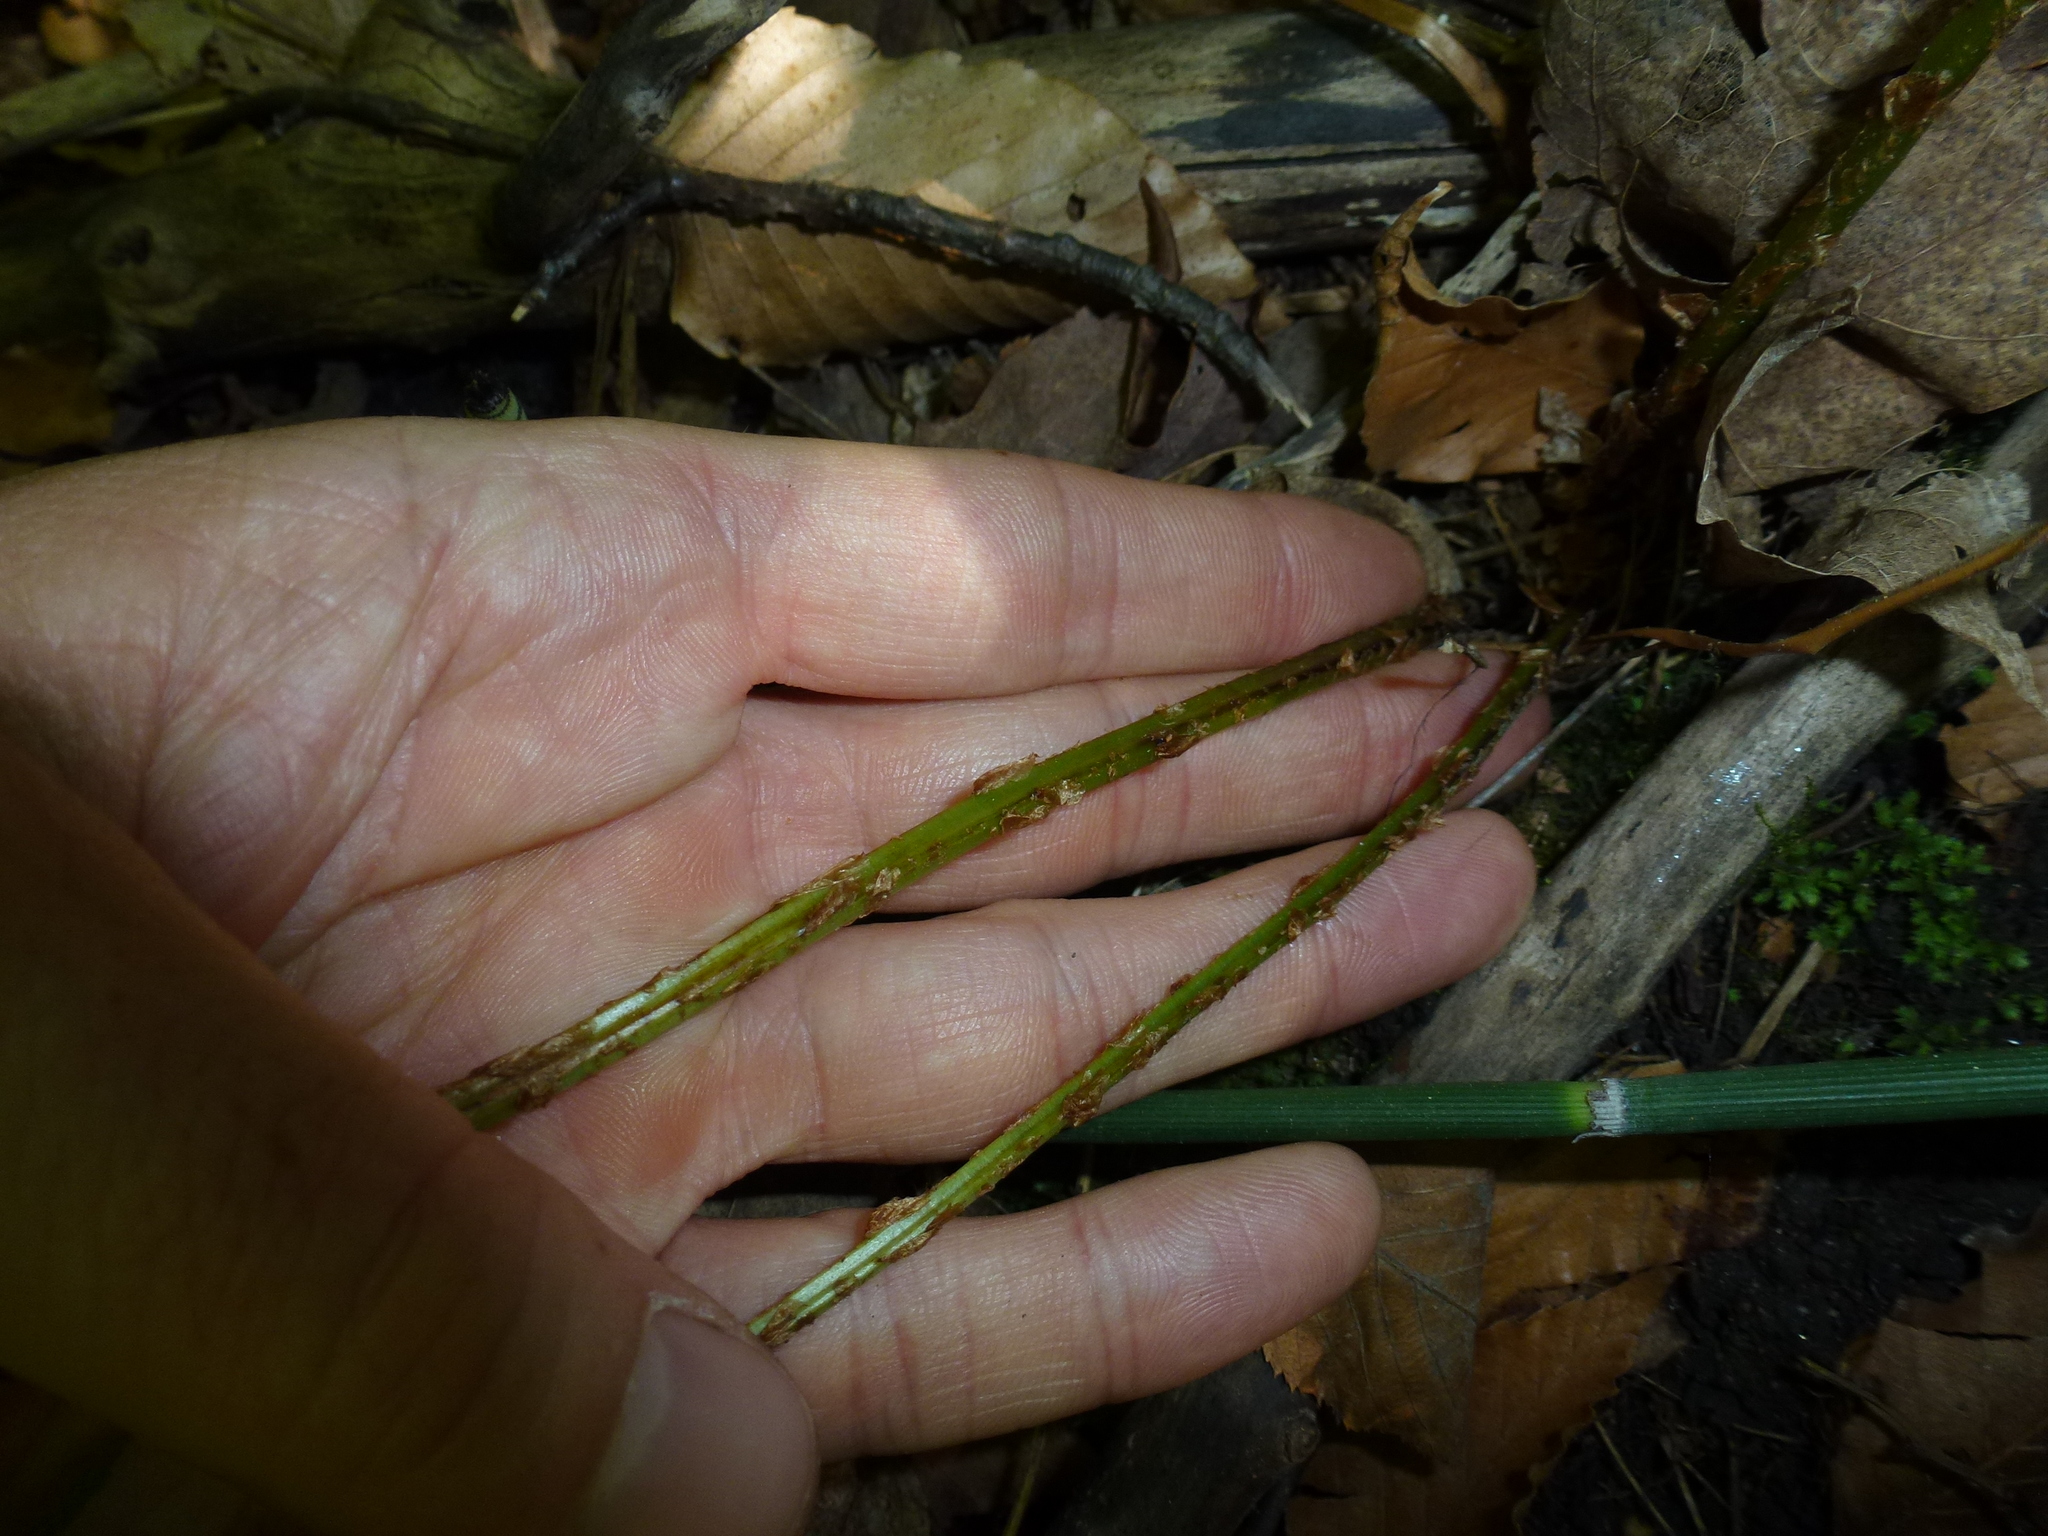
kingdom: Plantae
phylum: Tracheophyta
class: Polypodiopsida
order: Polypodiales
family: Dryopteridaceae
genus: Dryopteris
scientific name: Dryopteris carthusiana
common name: Narrow buckler-fern
